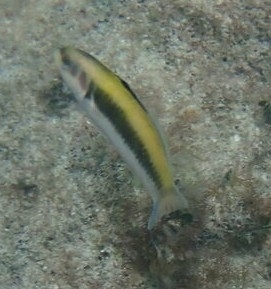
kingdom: Animalia
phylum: Chordata
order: Perciformes
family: Labridae
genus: Thalassoma
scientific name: Thalassoma bifasciatum
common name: Bluehead wrasse
